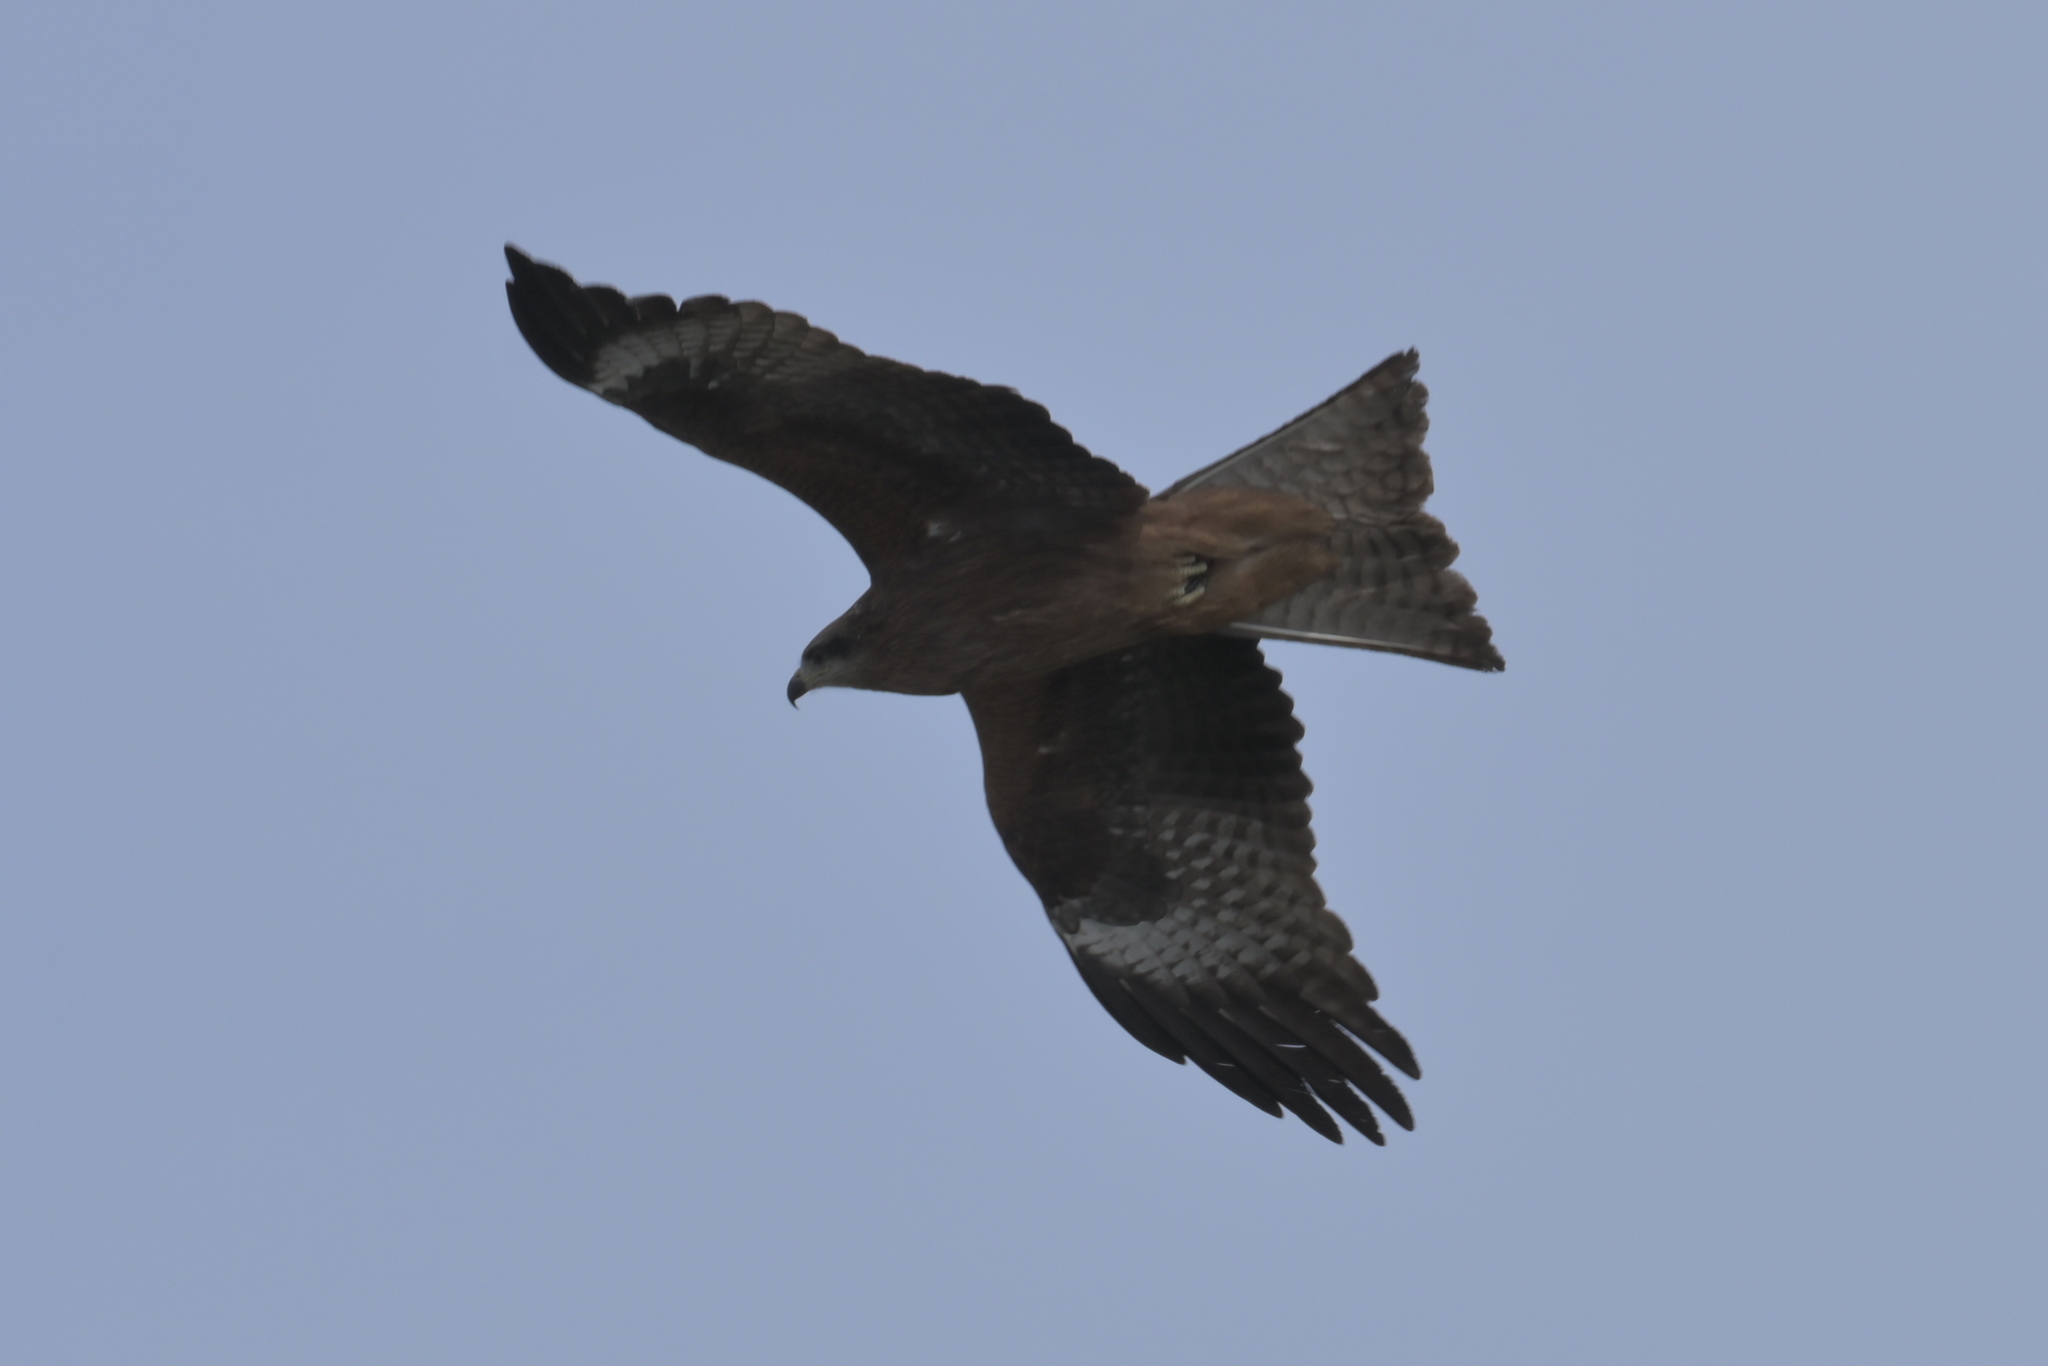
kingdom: Animalia
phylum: Chordata
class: Aves
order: Accipitriformes
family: Accipitridae
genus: Milvus
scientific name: Milvus migrans
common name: Black kite
